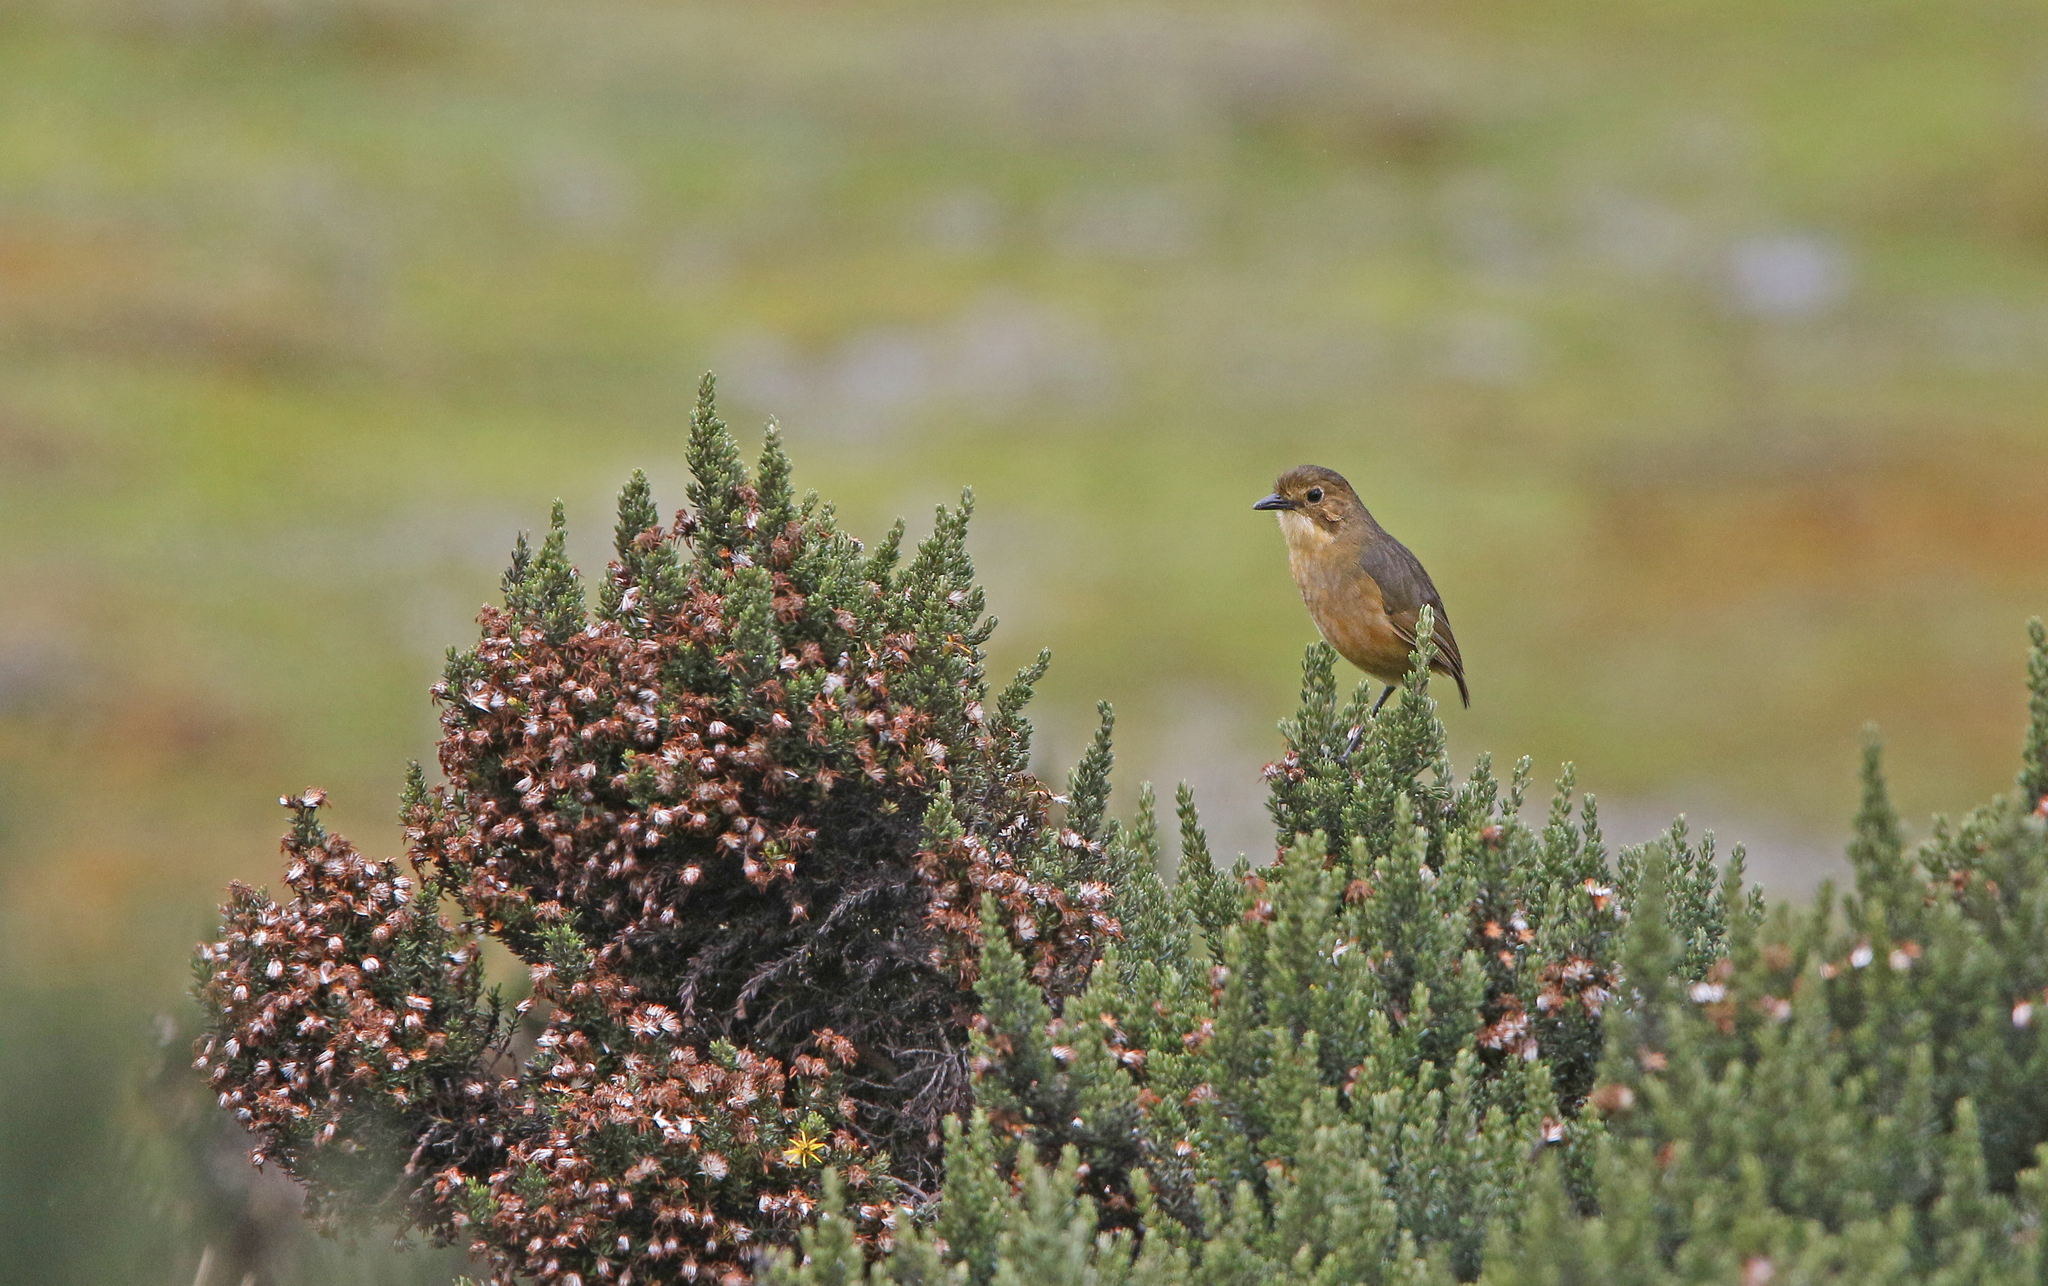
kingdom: Animalia
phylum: Chordata
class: Aves
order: Passeriformes
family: Grallariidae
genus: Grallaria
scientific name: Grallaria quitensis
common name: Tawny antpitta
